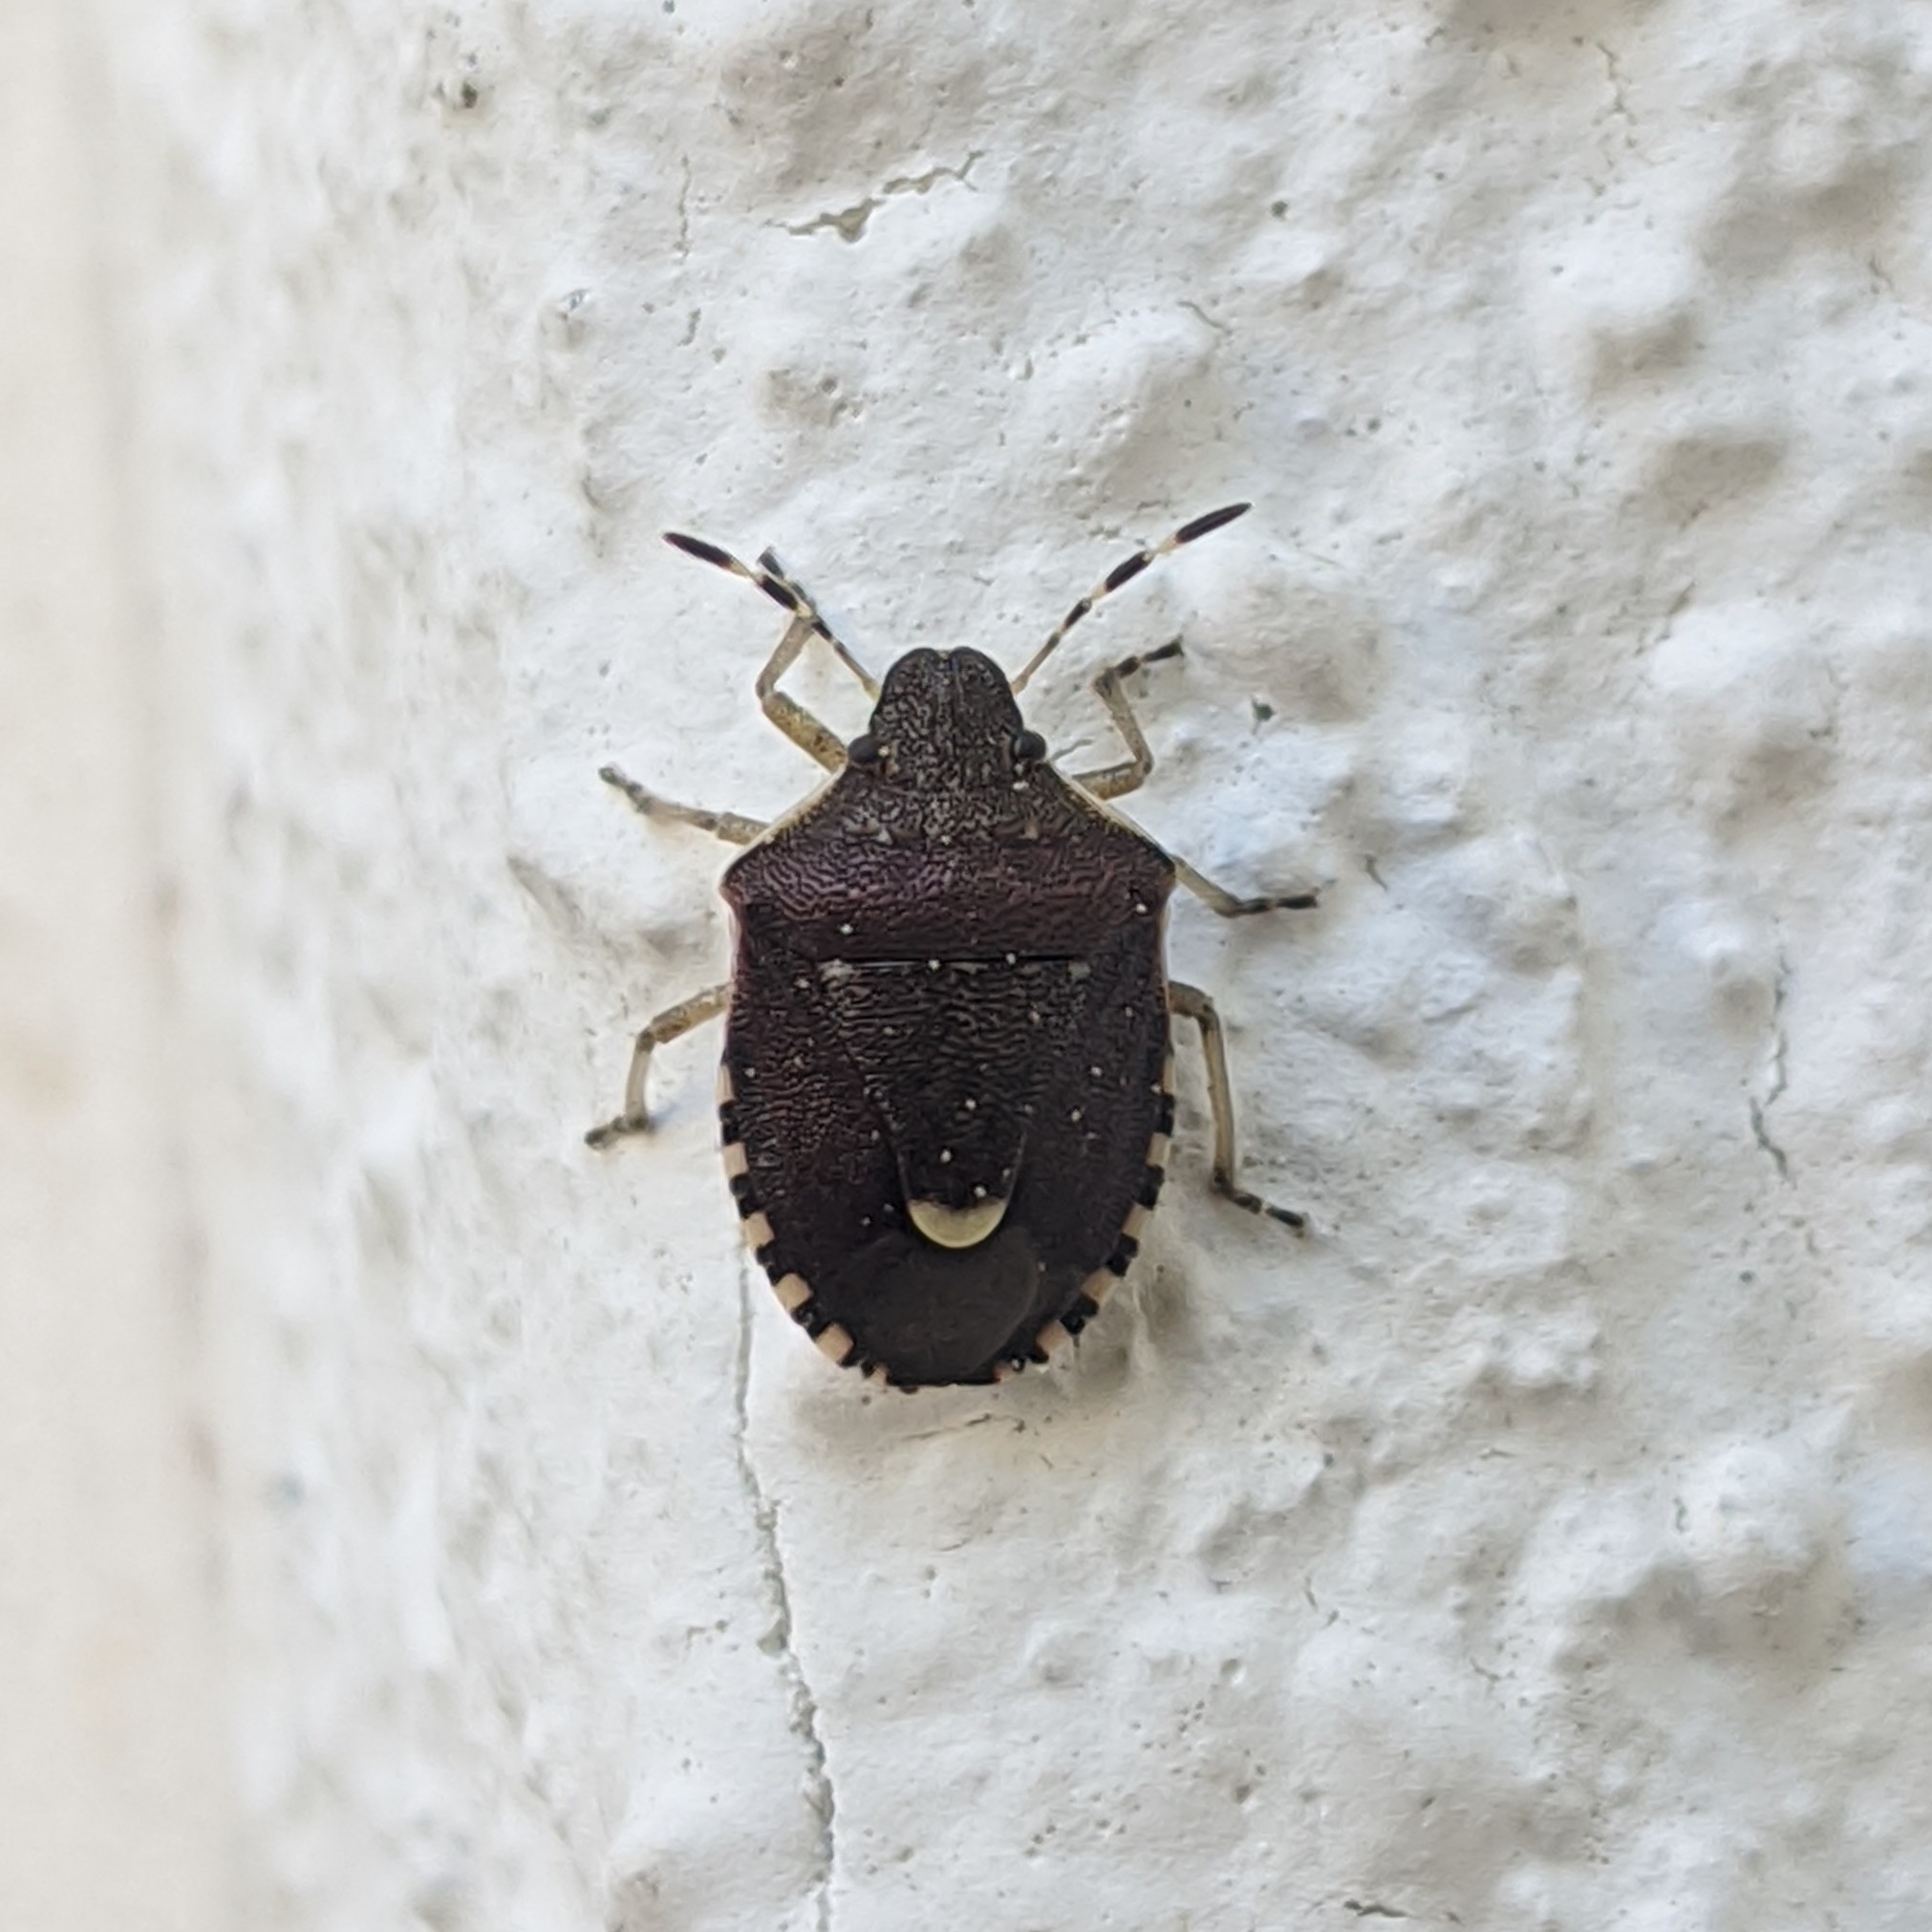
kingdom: Animalia
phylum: Arthropoda
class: Insecta
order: Hemiptera
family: Pentatomidae
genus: Holcostethus
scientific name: Holcostethus sphacelatus
